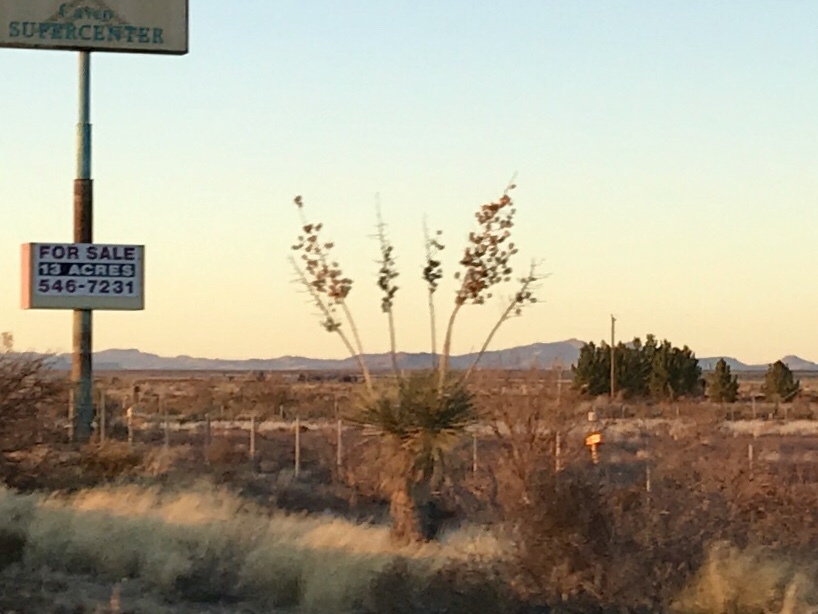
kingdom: Plantae
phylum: Tracheophyta
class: Liliopsida
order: Asparagales
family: Asparagaceae
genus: Yucca
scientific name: Yucca elata
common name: Palmella
